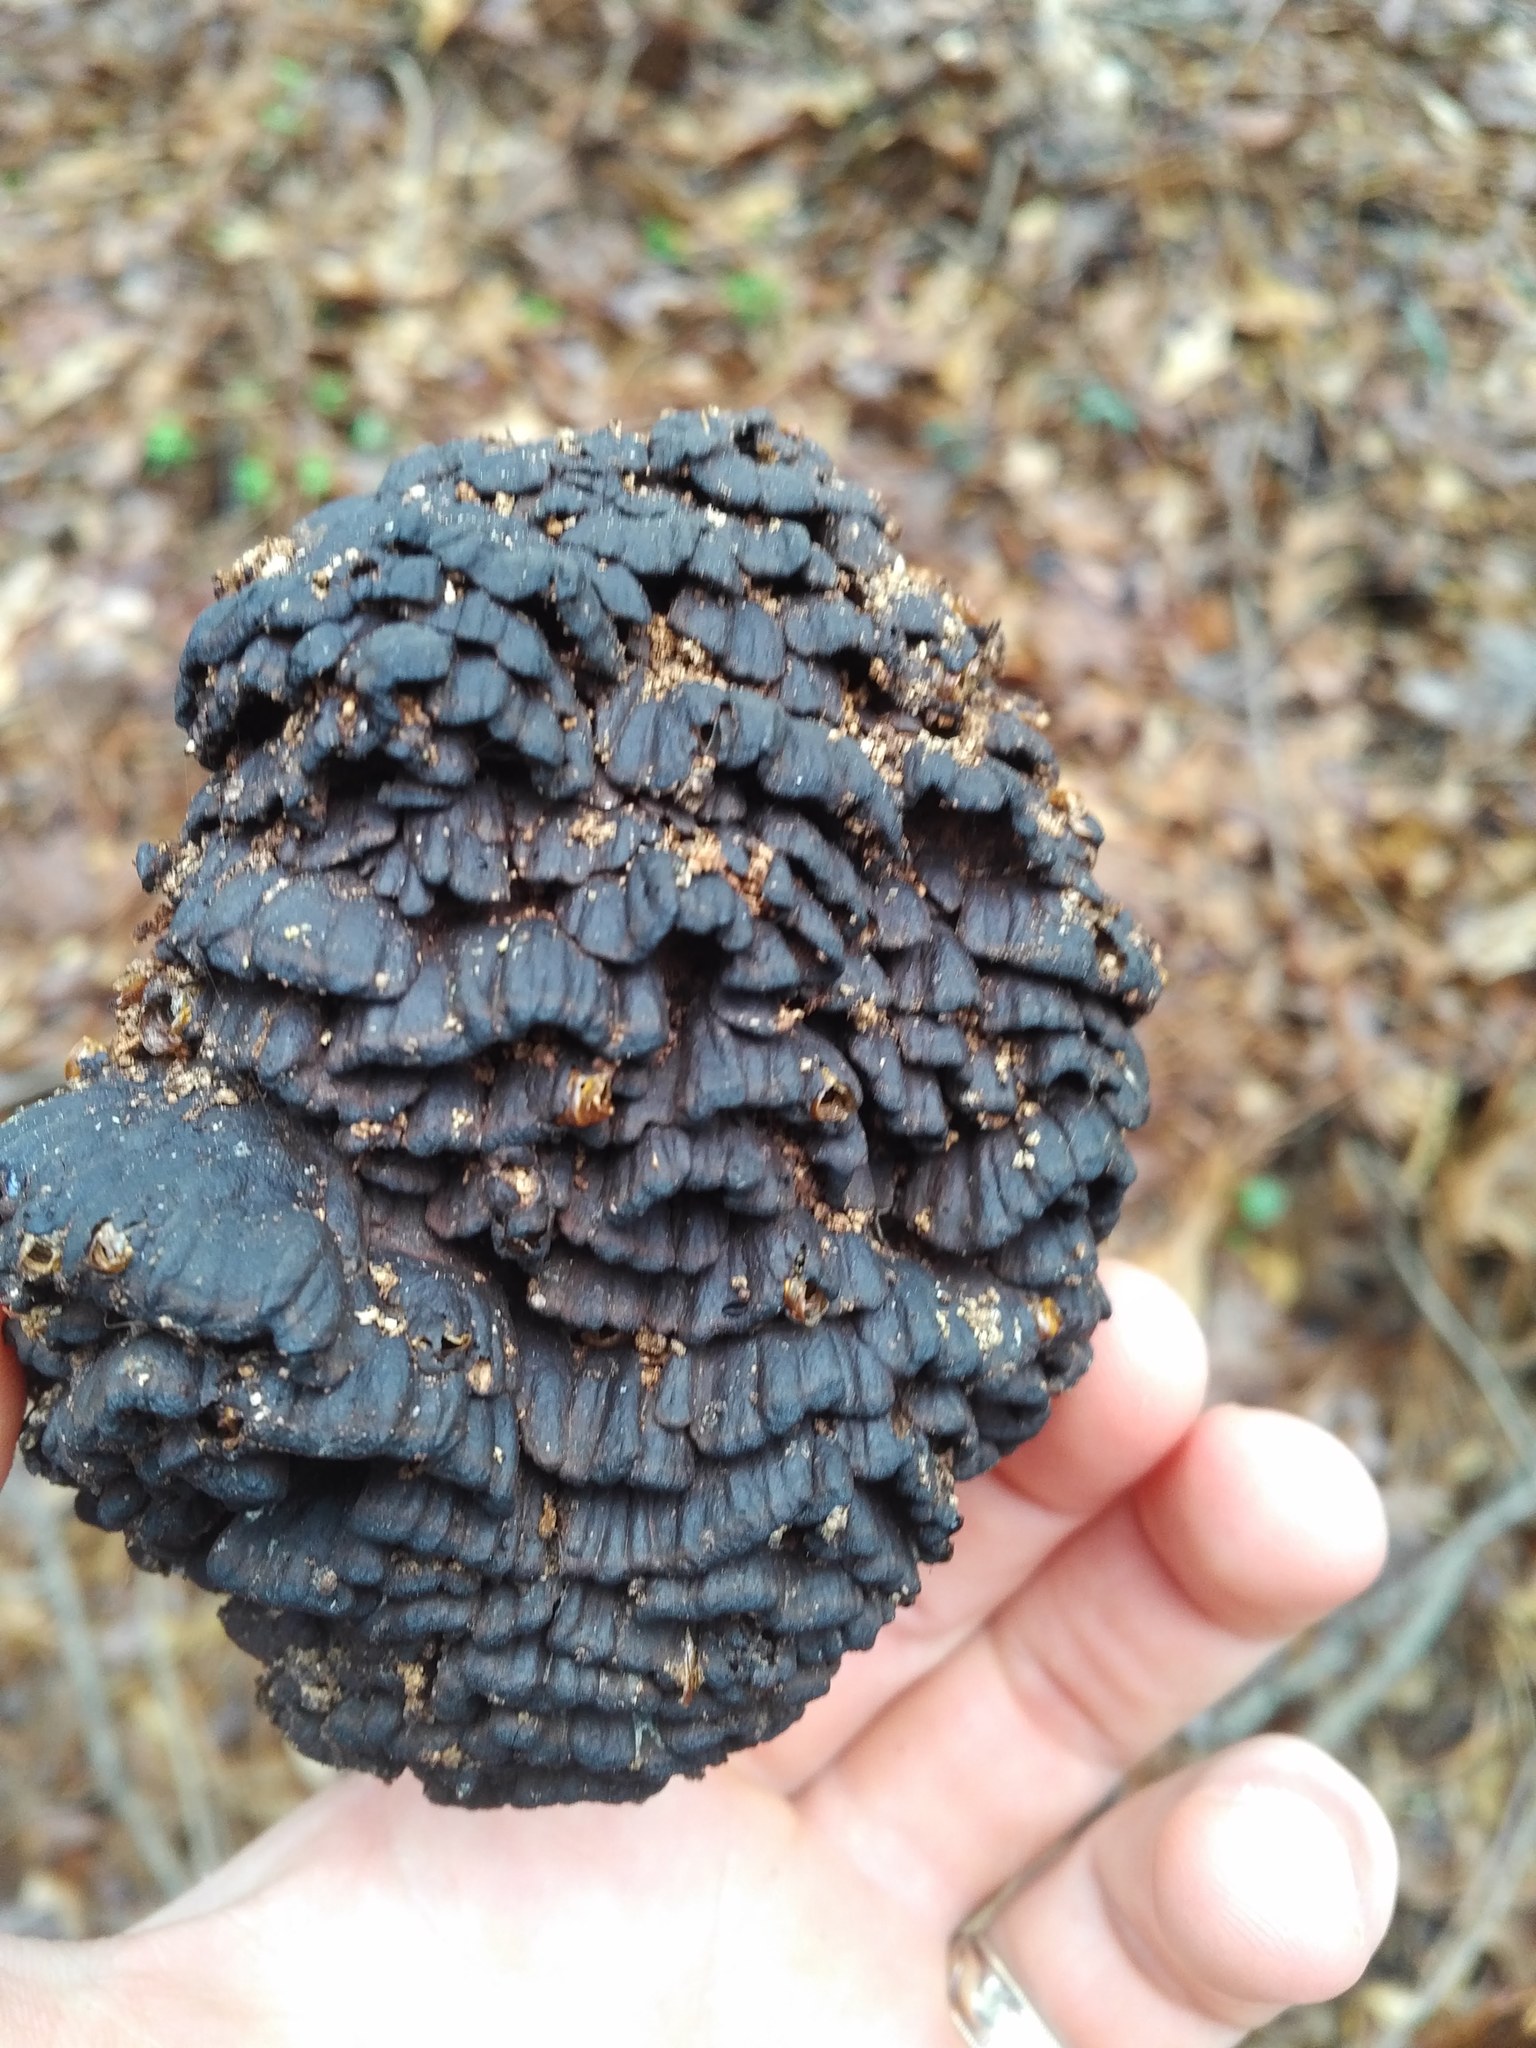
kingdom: Fungi
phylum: Basidiomycota
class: Agaricomycetes
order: Polyporales
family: Polyporaceae
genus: Globifomes
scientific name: Globifomes graveolens
